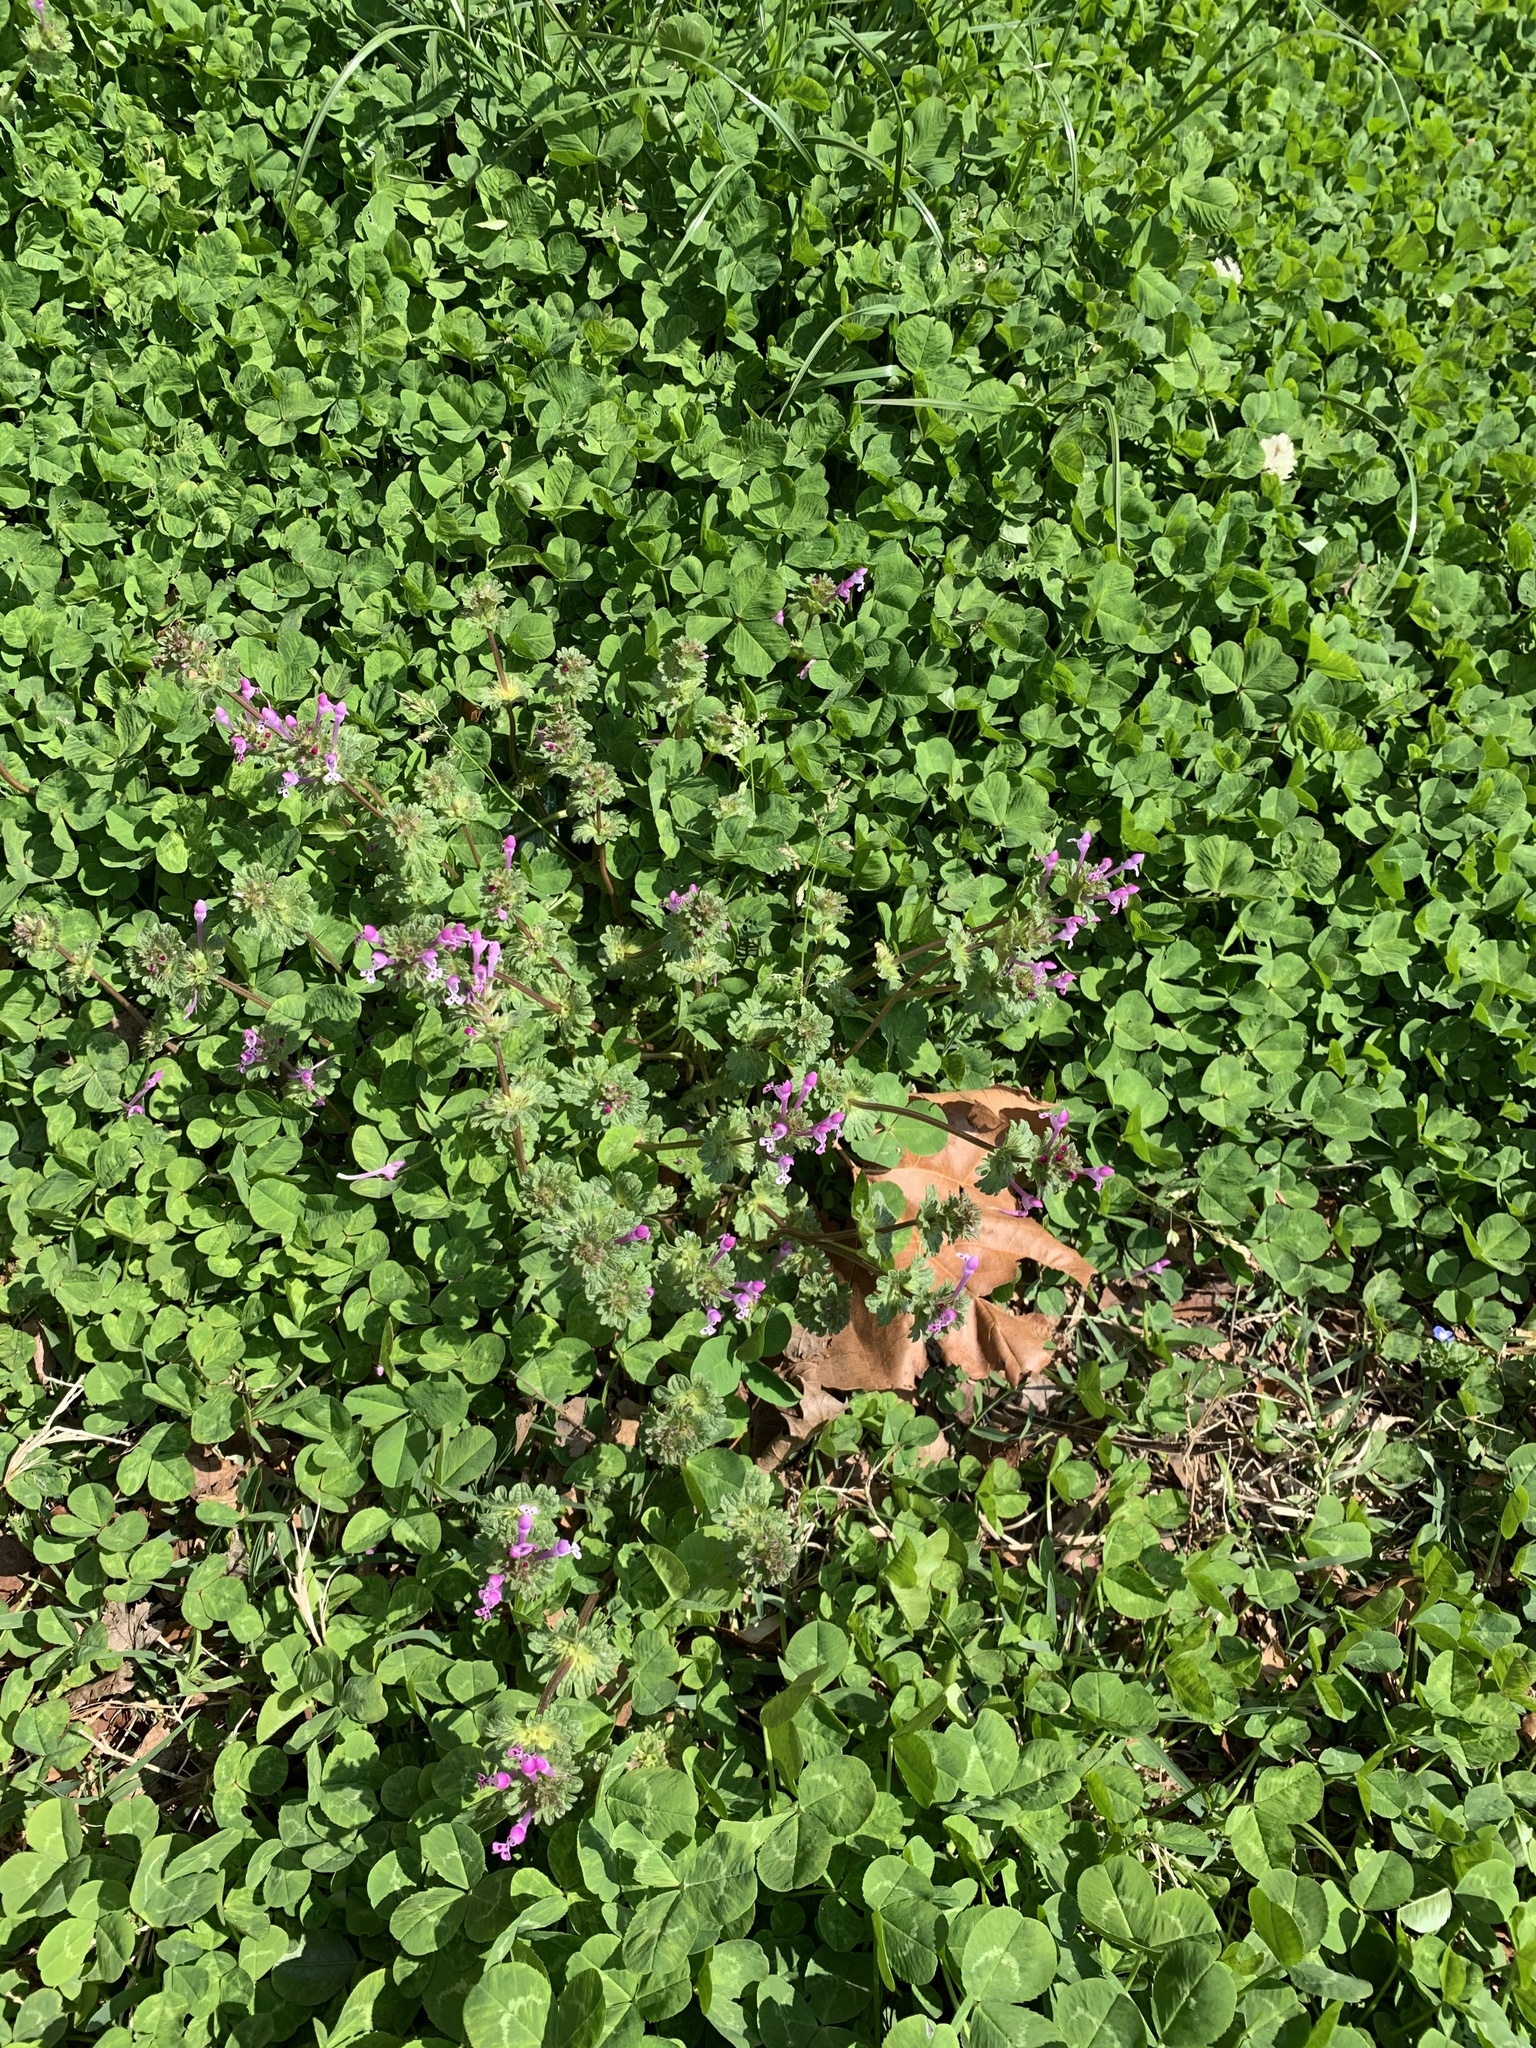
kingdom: Plantae
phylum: Tracheophyta
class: Magnoliopsida
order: Lamiales
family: Lamiaceae
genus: Lamium
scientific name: Lamium amplexicaule
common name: Henbit dead-nettle
